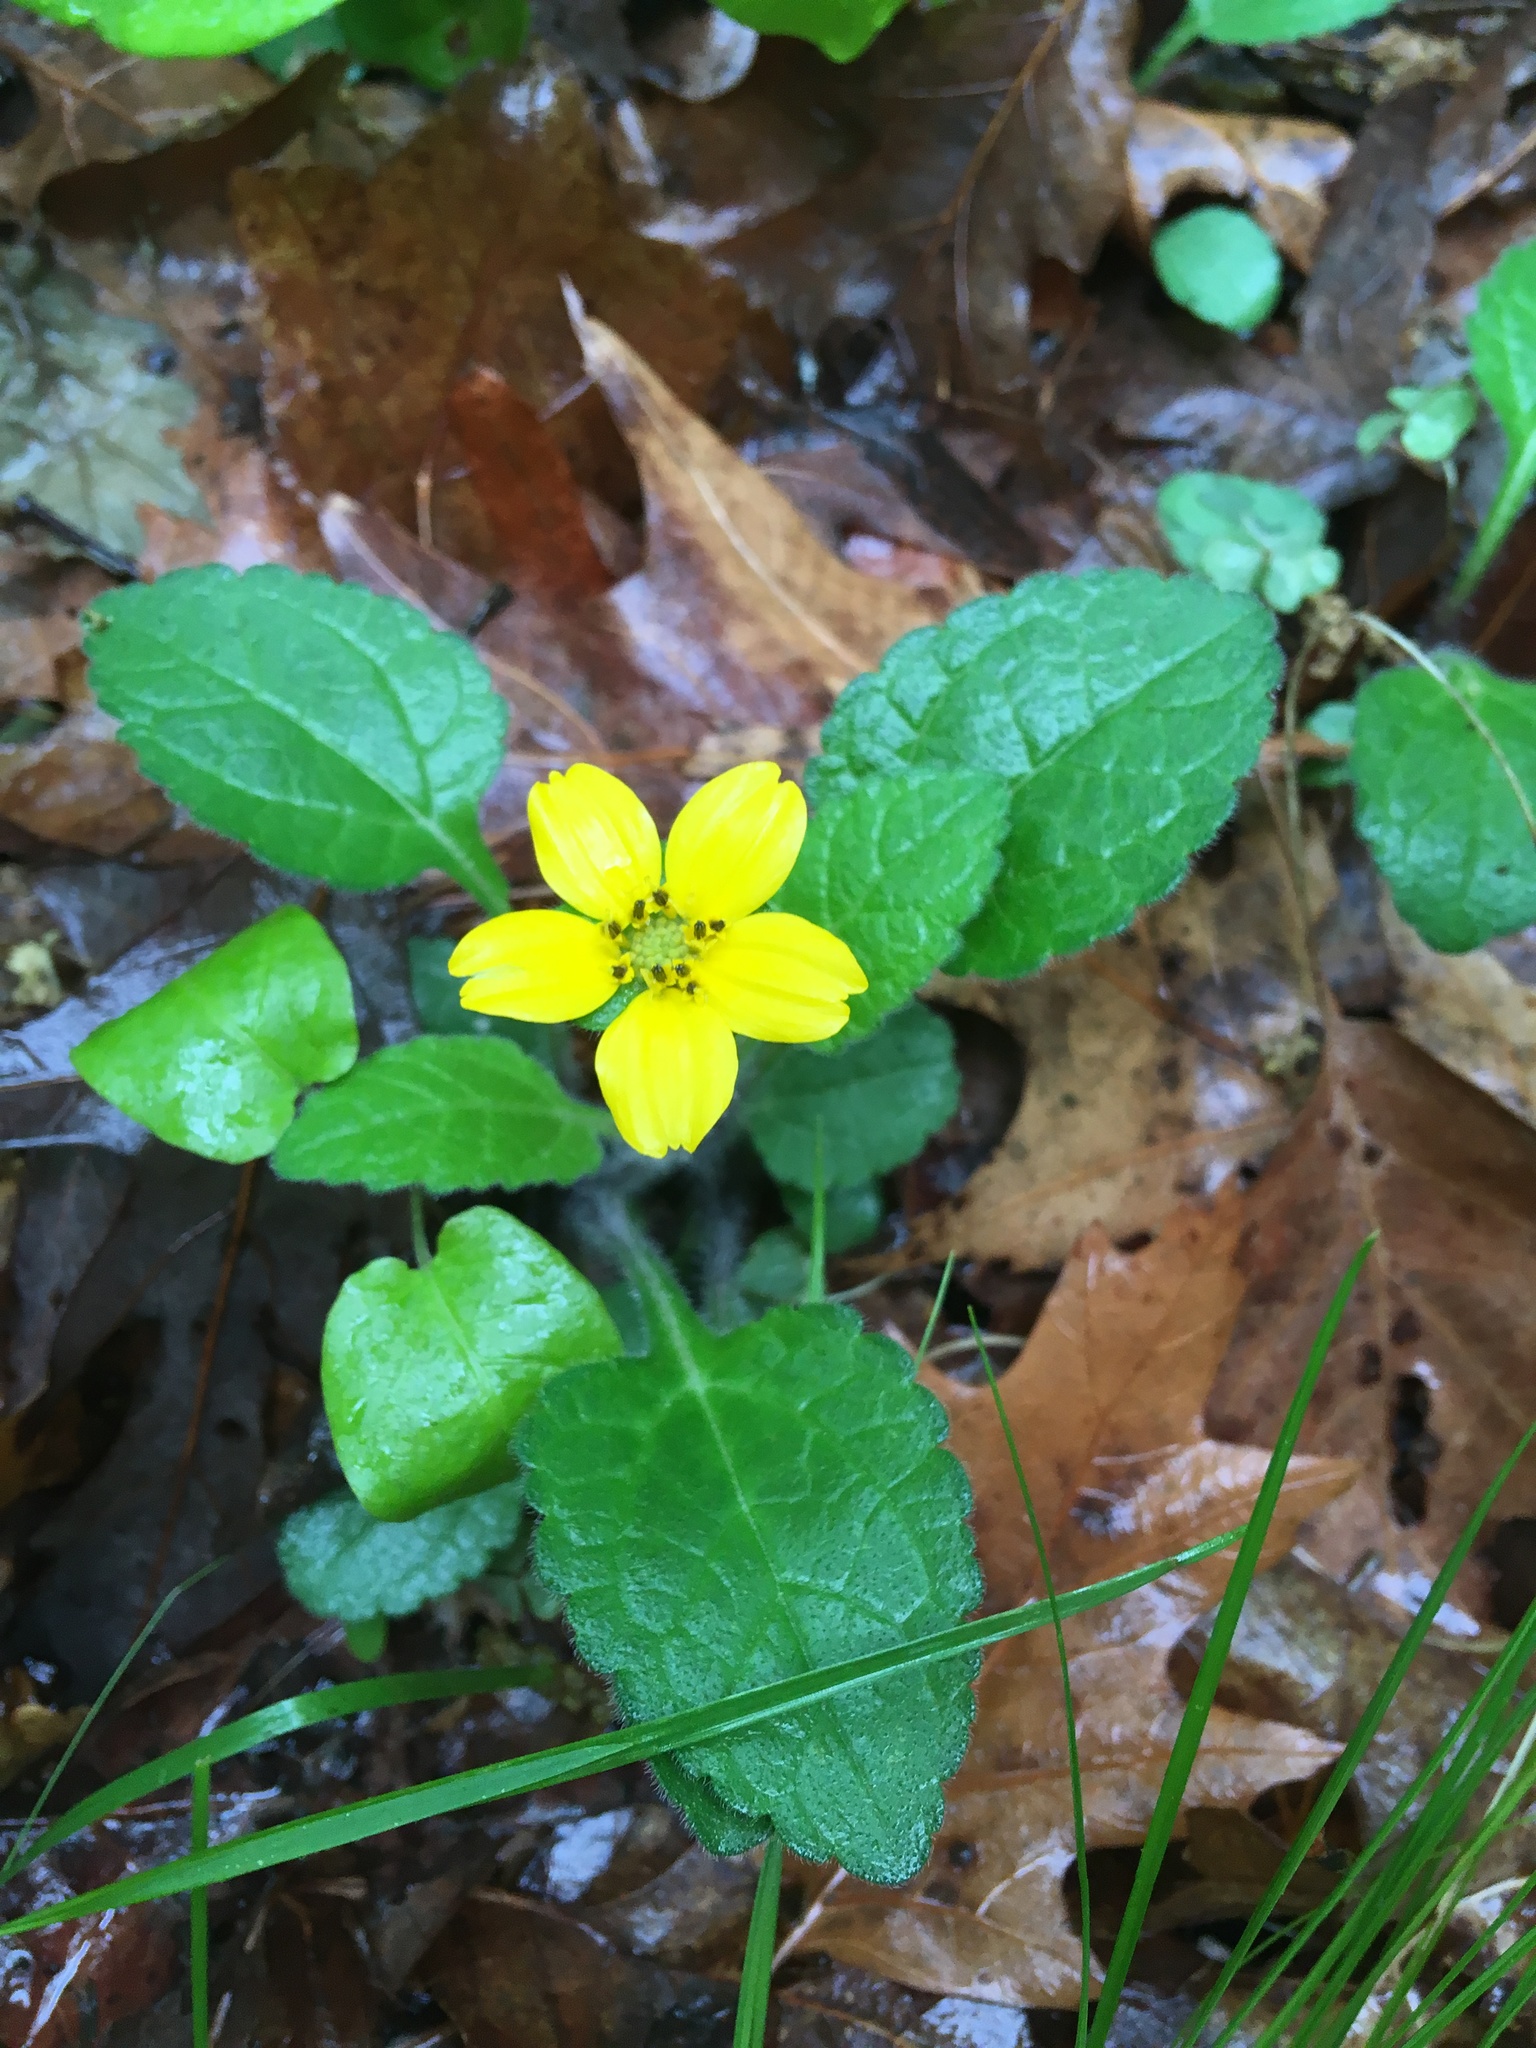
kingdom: Plantae
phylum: Tracheophyta
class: Magnoliopsida
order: Asterales
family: Asteraceae
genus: Chrysogonum
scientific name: Chrysogonum virginianum
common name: Golden-knee
